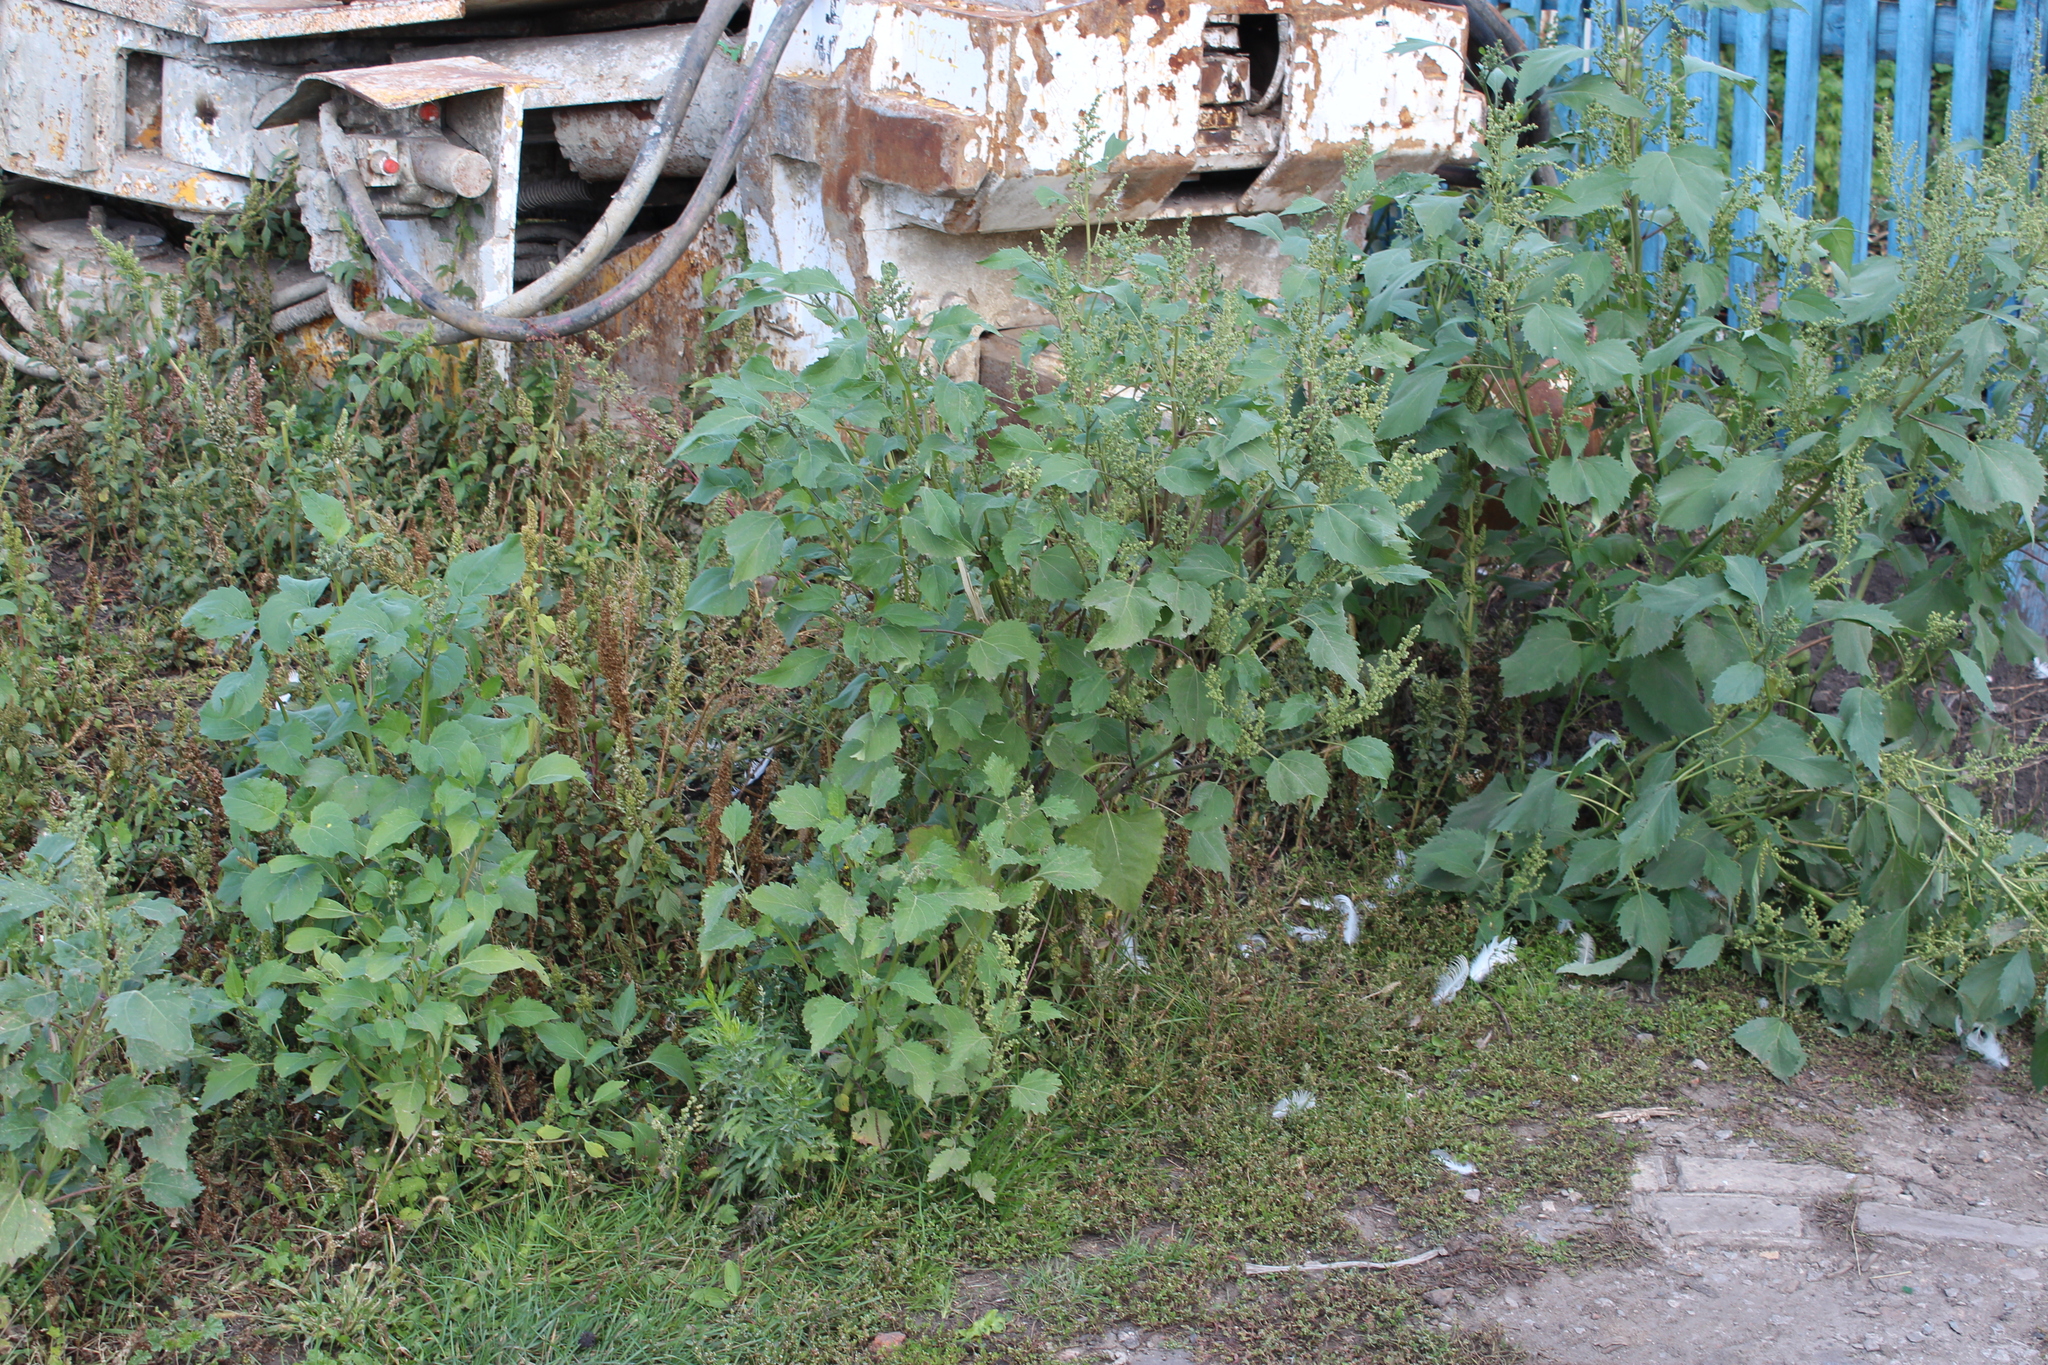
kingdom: Plantae
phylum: Tracheophyta
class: Magnoliopsida
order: Asterales
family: Asteraceae
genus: Cyclachaena
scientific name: Cyclachaena xanthiifolia
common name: Giant sumpweed
